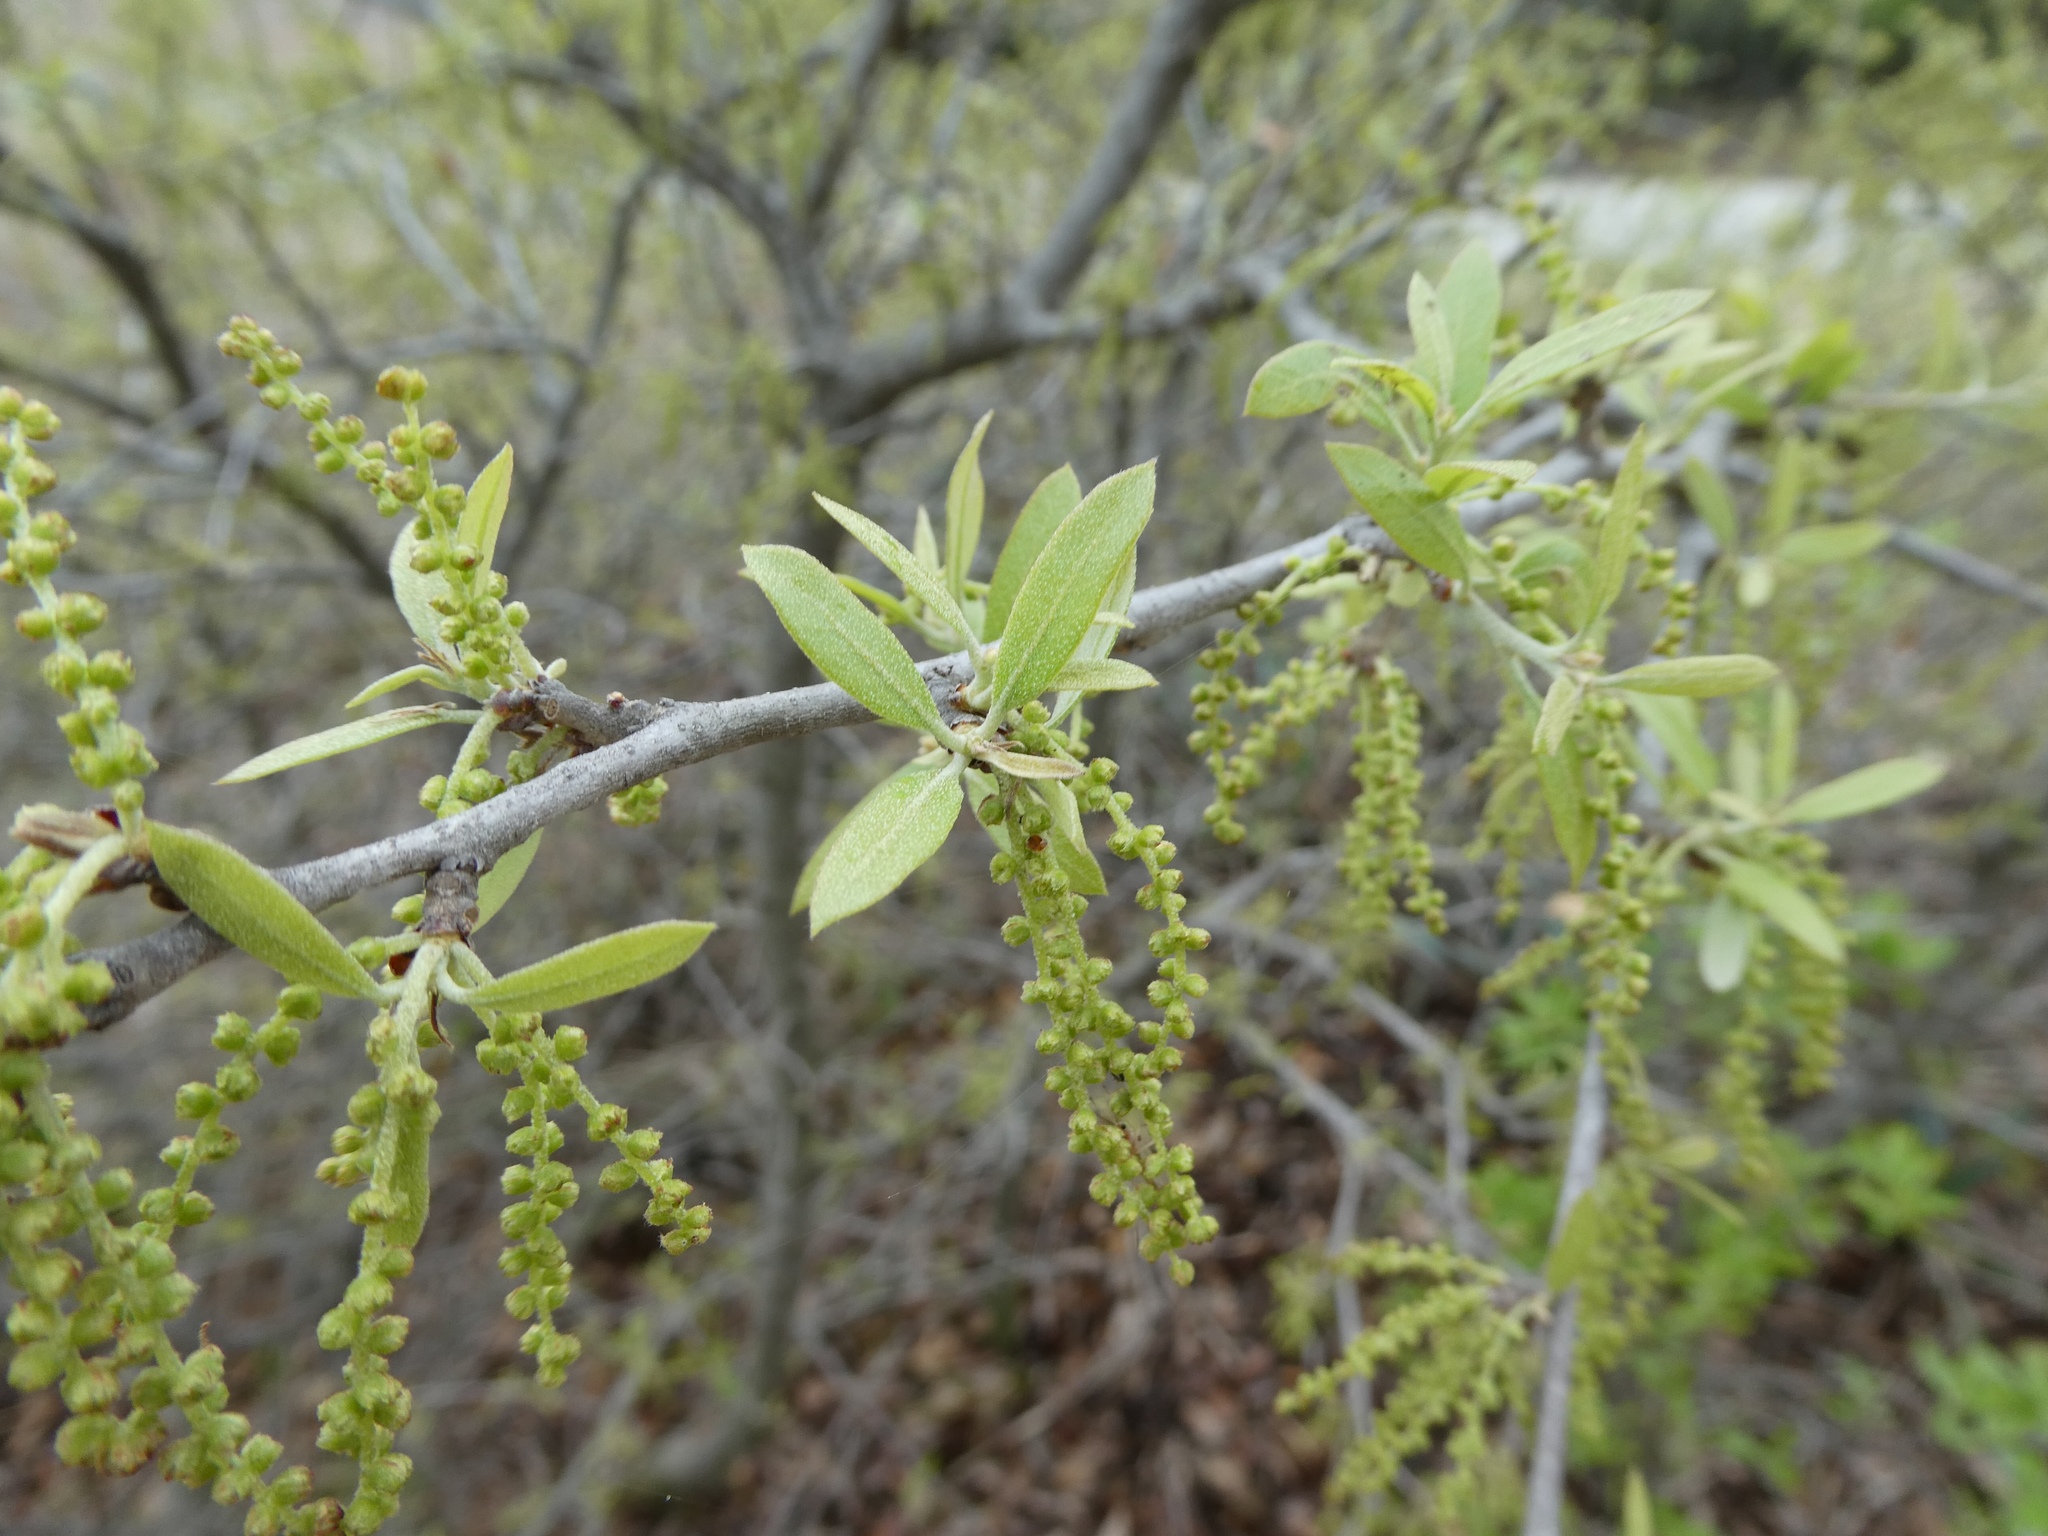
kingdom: Plantae
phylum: Tracheophyta
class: Magnoliopsida
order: Fagales
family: Fagaceae
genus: Quercus
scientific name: Quercus fusiformis
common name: Texas live oak
